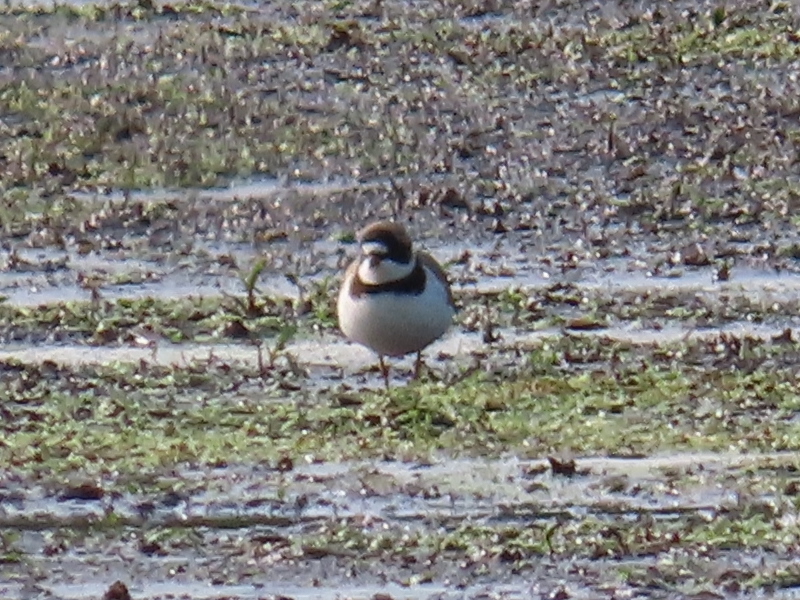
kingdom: Animalia
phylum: Chordata
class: Aves
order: Charadriiformes
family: Charadriidae
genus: Charadrius
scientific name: Charadrius semipalmatus
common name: Semipalmated plover
